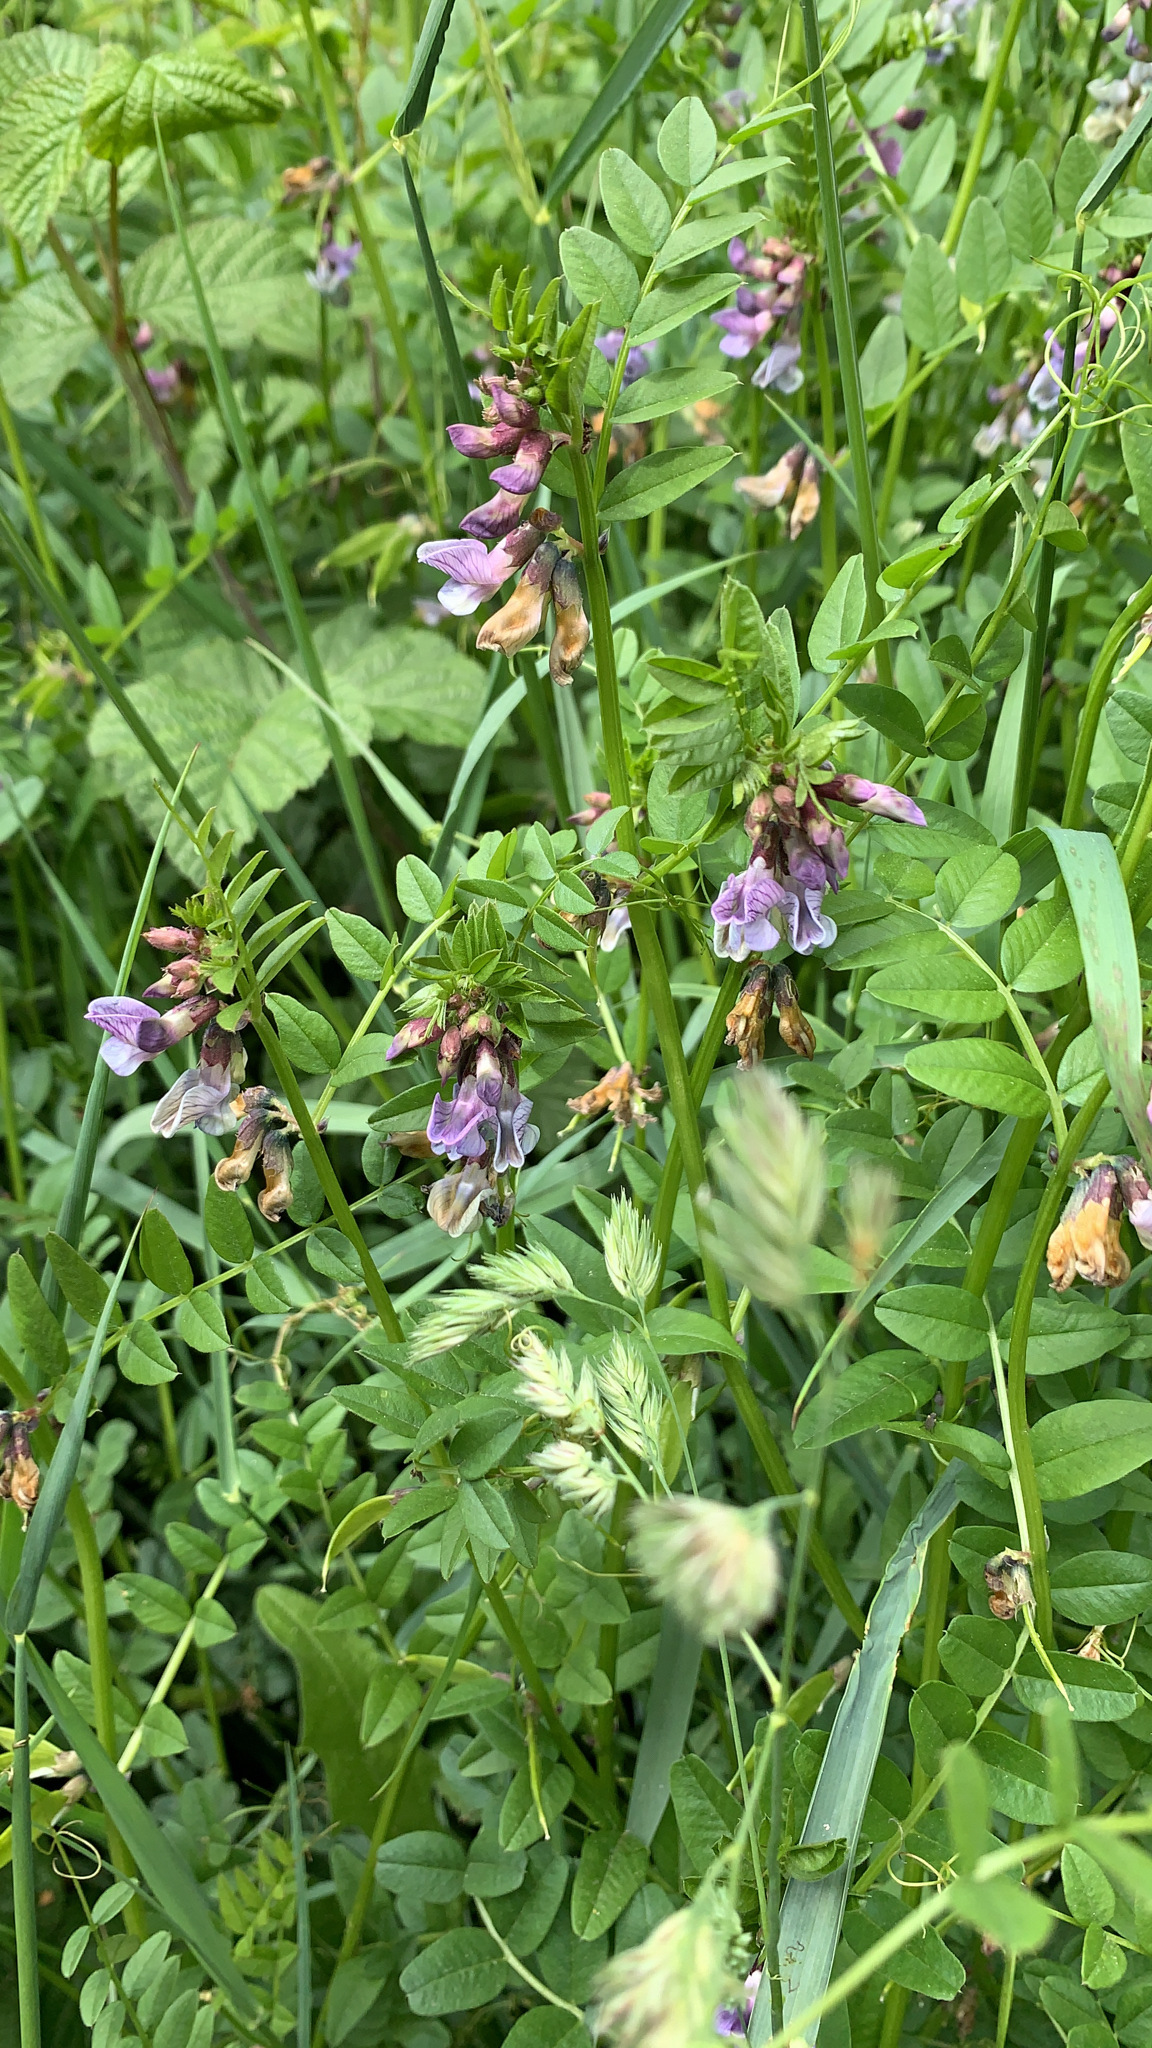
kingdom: Plantae
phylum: Tracheophyta
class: Magnoliopsida
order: Fabales
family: Fabaceae
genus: Vicia
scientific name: Vicia sepium
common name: Bush vetch
